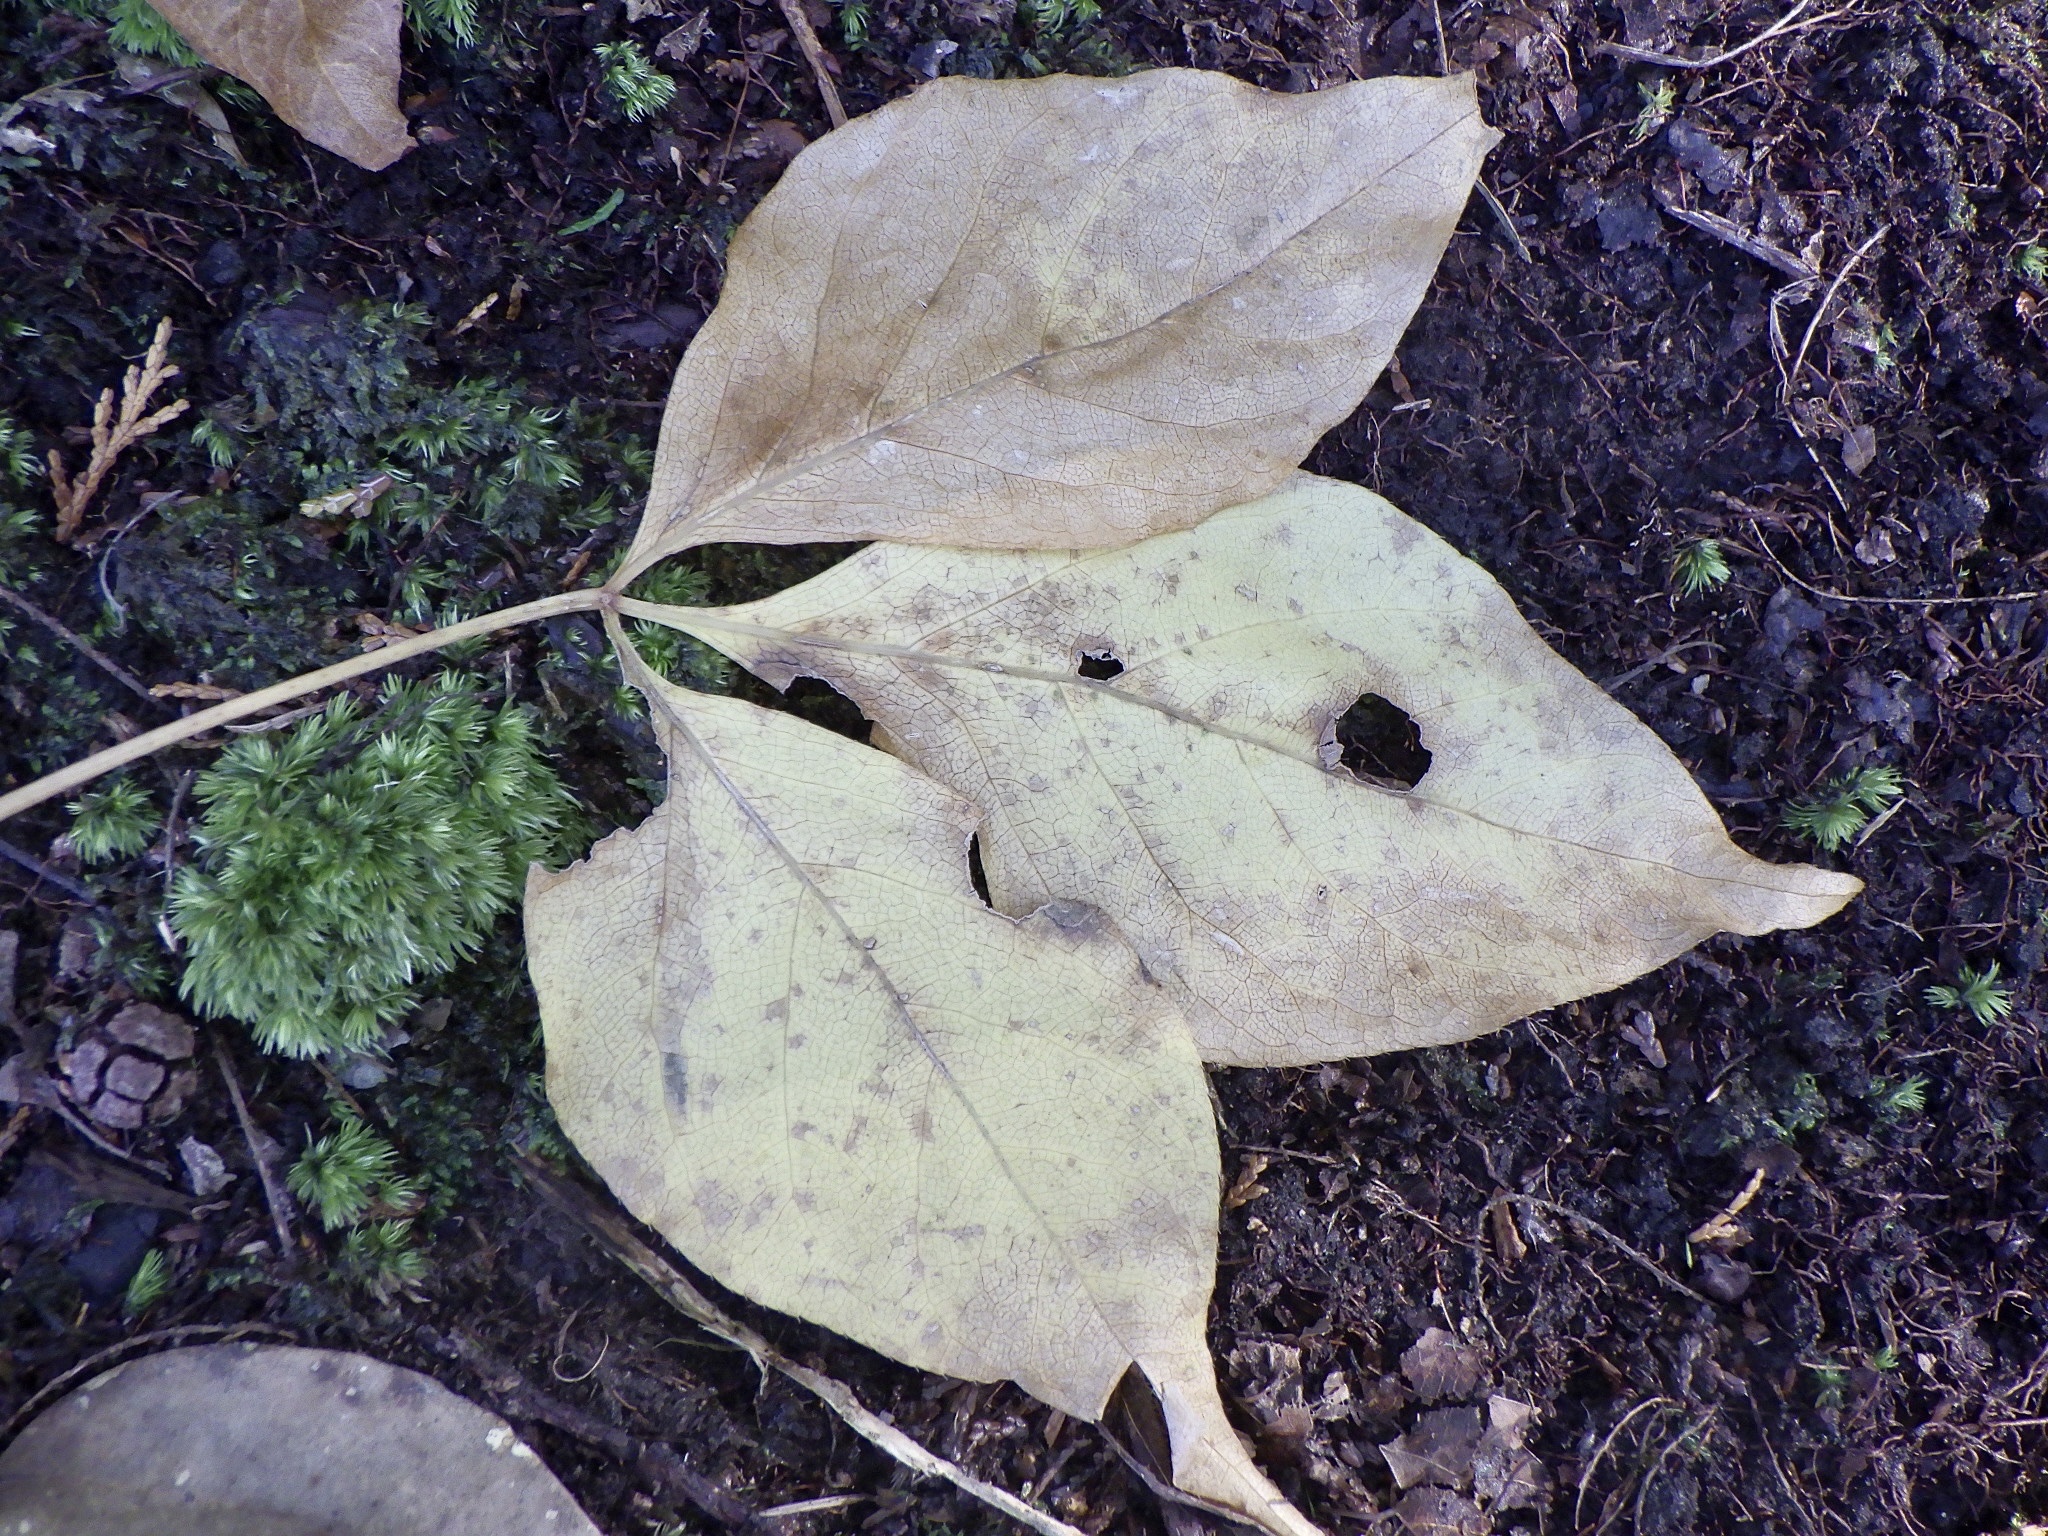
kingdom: Plantae
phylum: Tracheophyta
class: Magnoliopsida
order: Apiales
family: Araliaceae
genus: Gamblea
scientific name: Gamblea innovans
